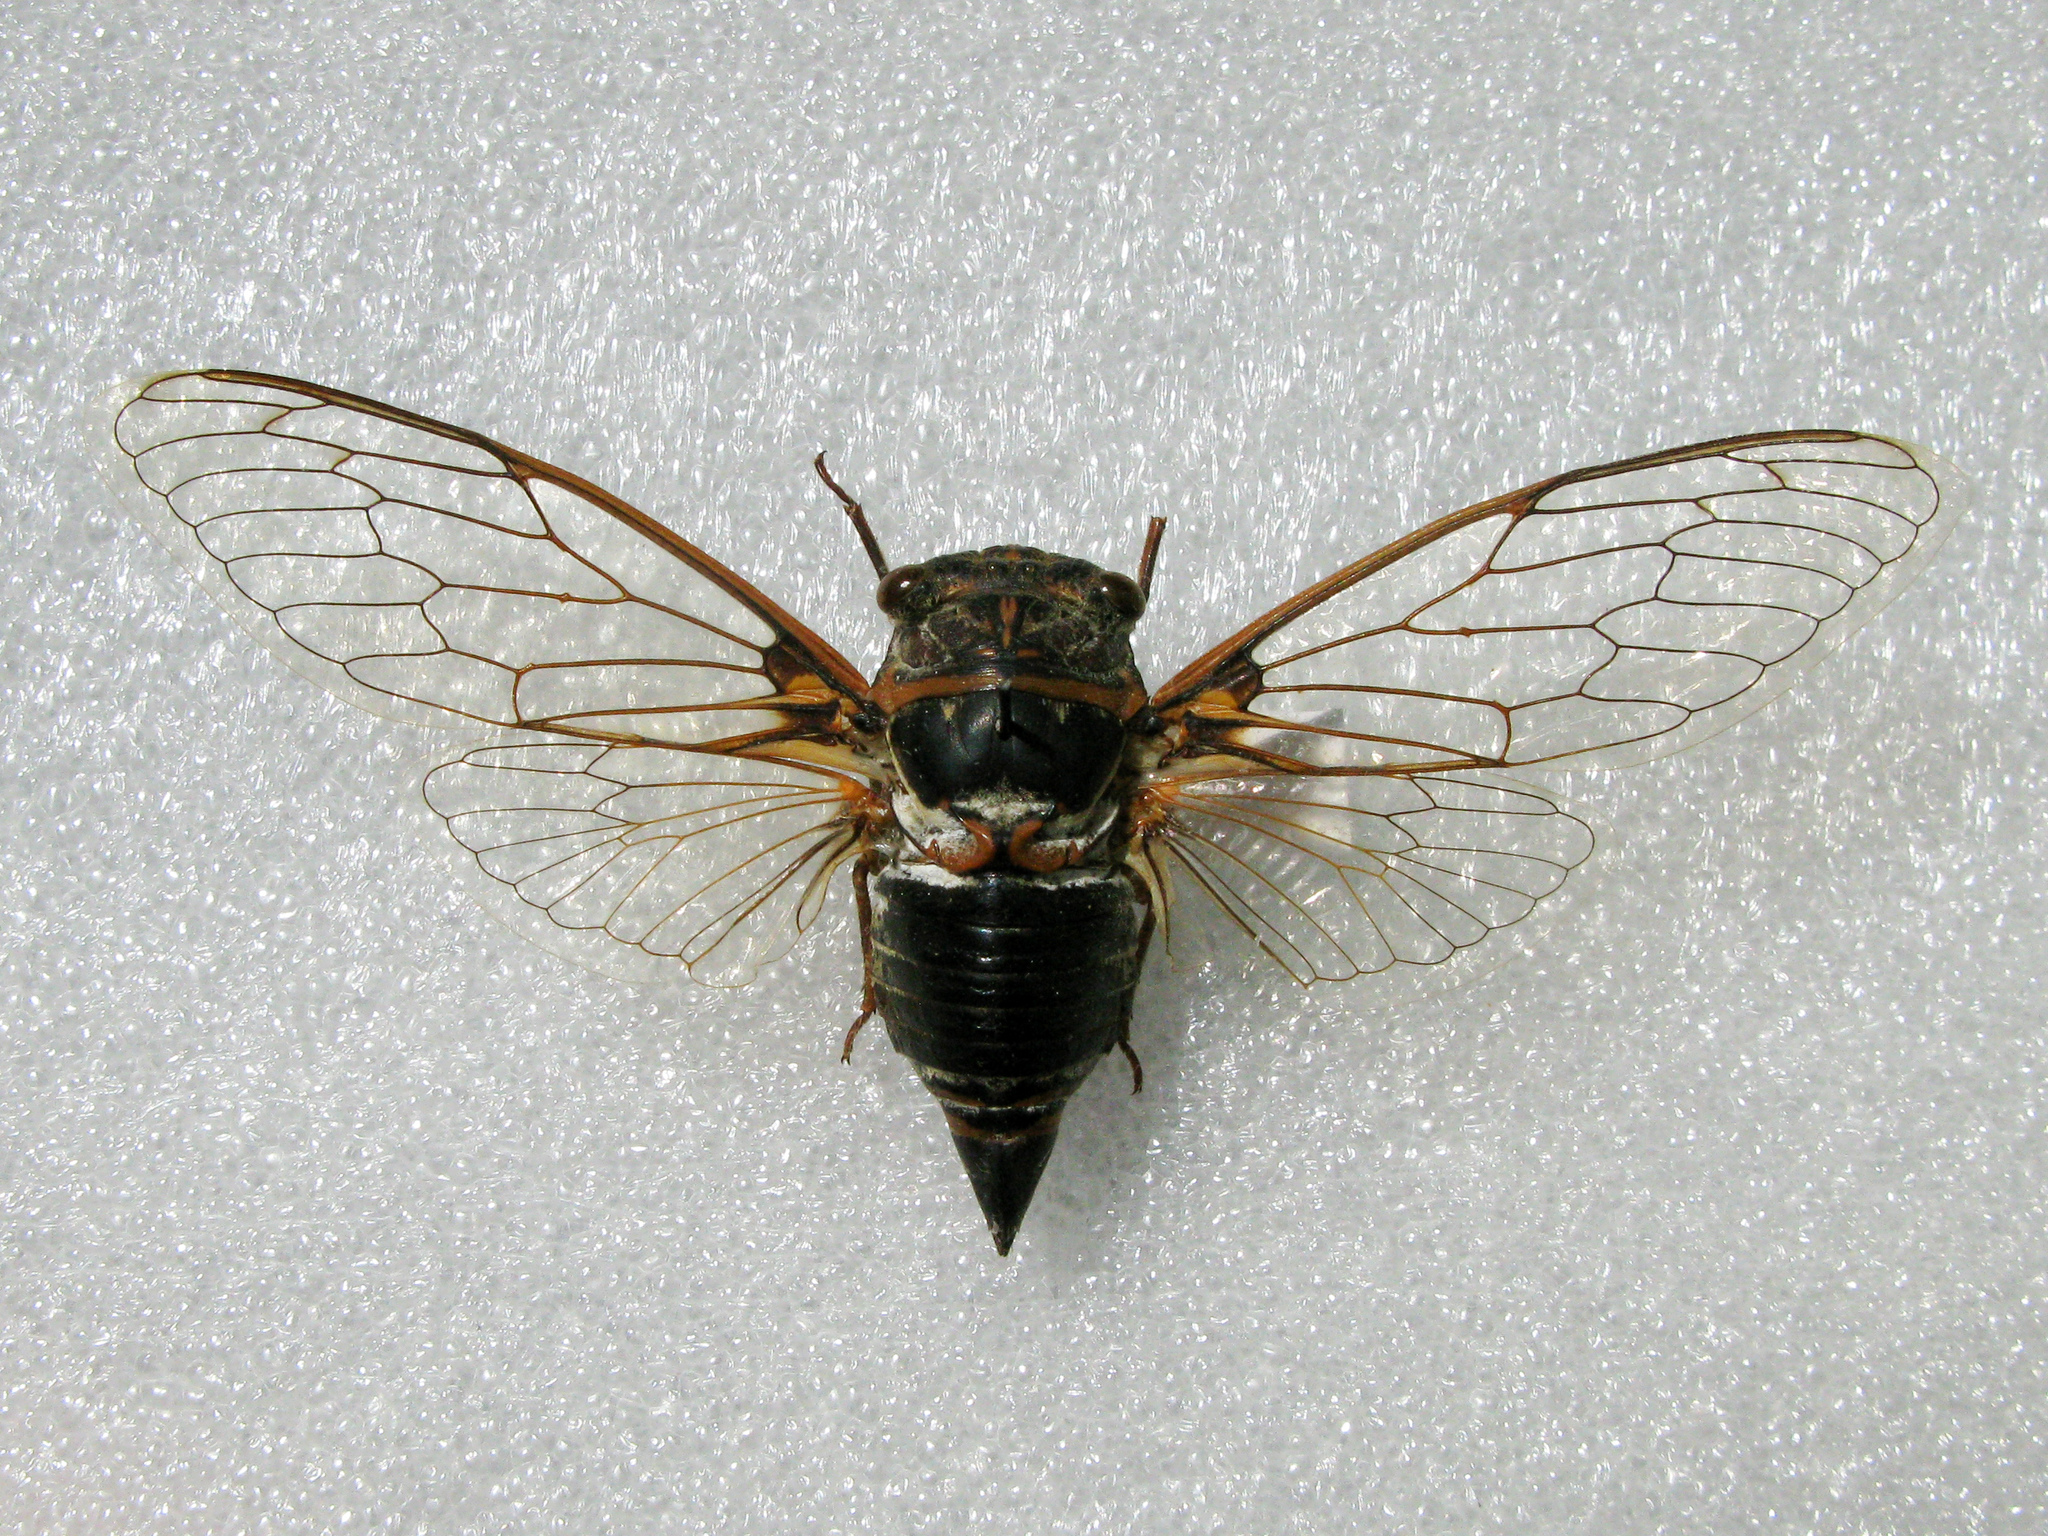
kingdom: Animalia
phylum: Arthropoda
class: Insecta
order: Hemiptera
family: Cicadidae
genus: Lyristes
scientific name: Lyristes plebejus
